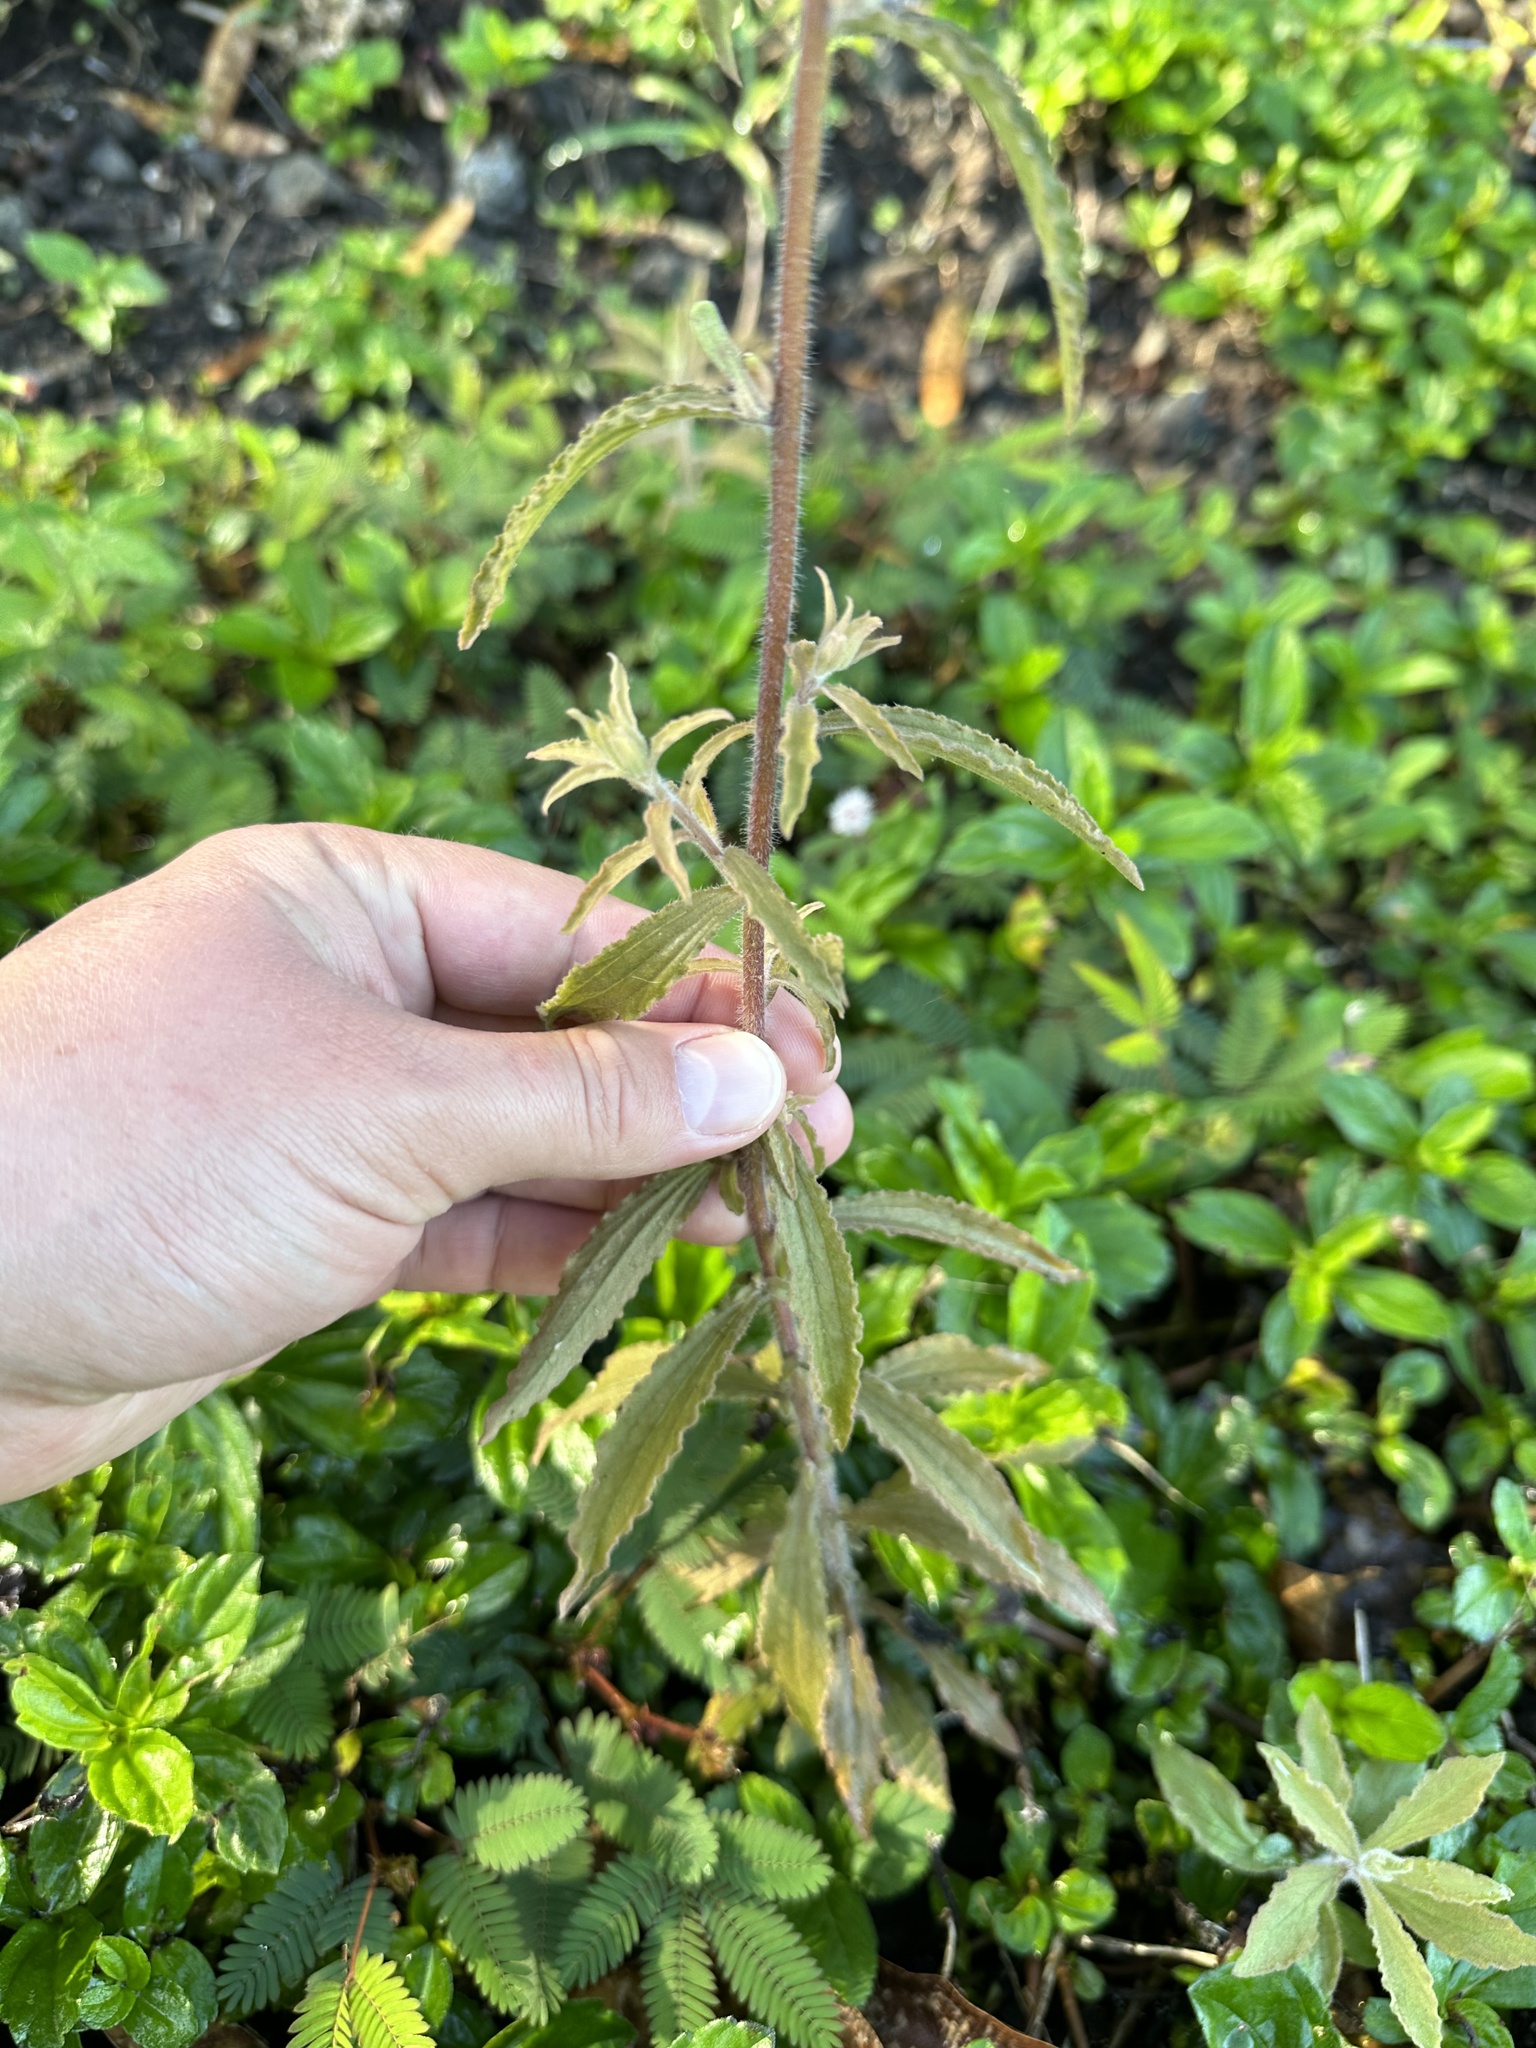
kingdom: Plantae
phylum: Tracheophyta
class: Magnoliopsida
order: Lamiales
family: Orobanchaceae
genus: Castilleja
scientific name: Castilleja arvensis
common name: Indian paintbrush
